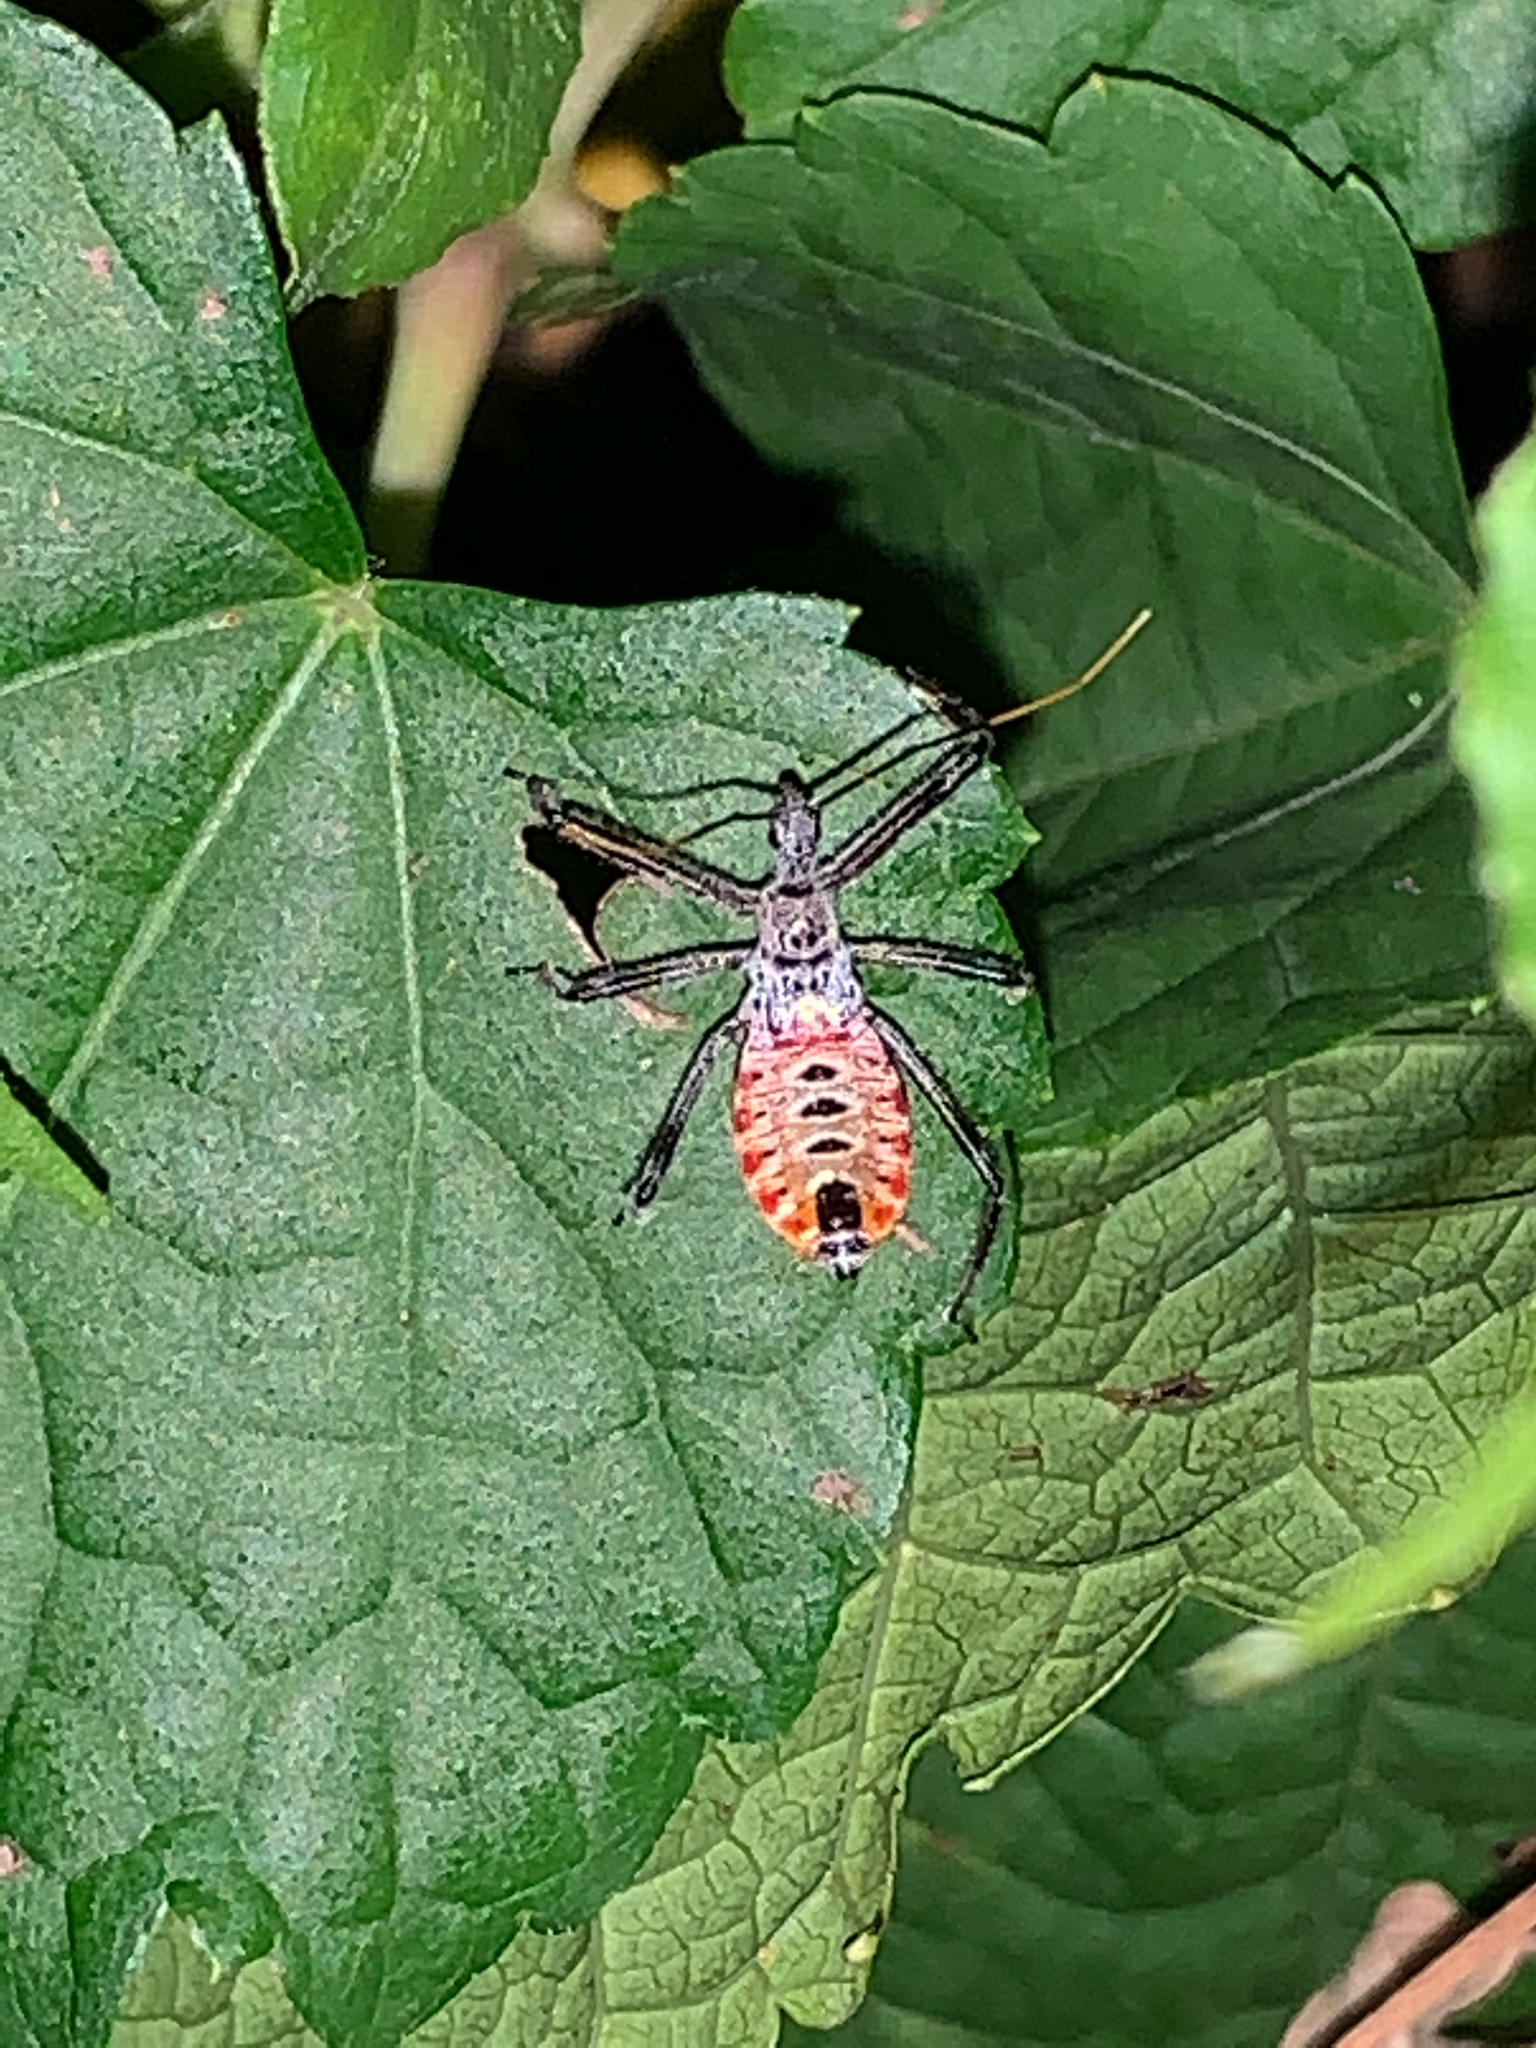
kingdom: Animalia
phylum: Arthropoda
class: Insecta
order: Hemiptera
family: Reduviidae
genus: Arilus
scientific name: Arilus cristatus
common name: North american wheel bug
